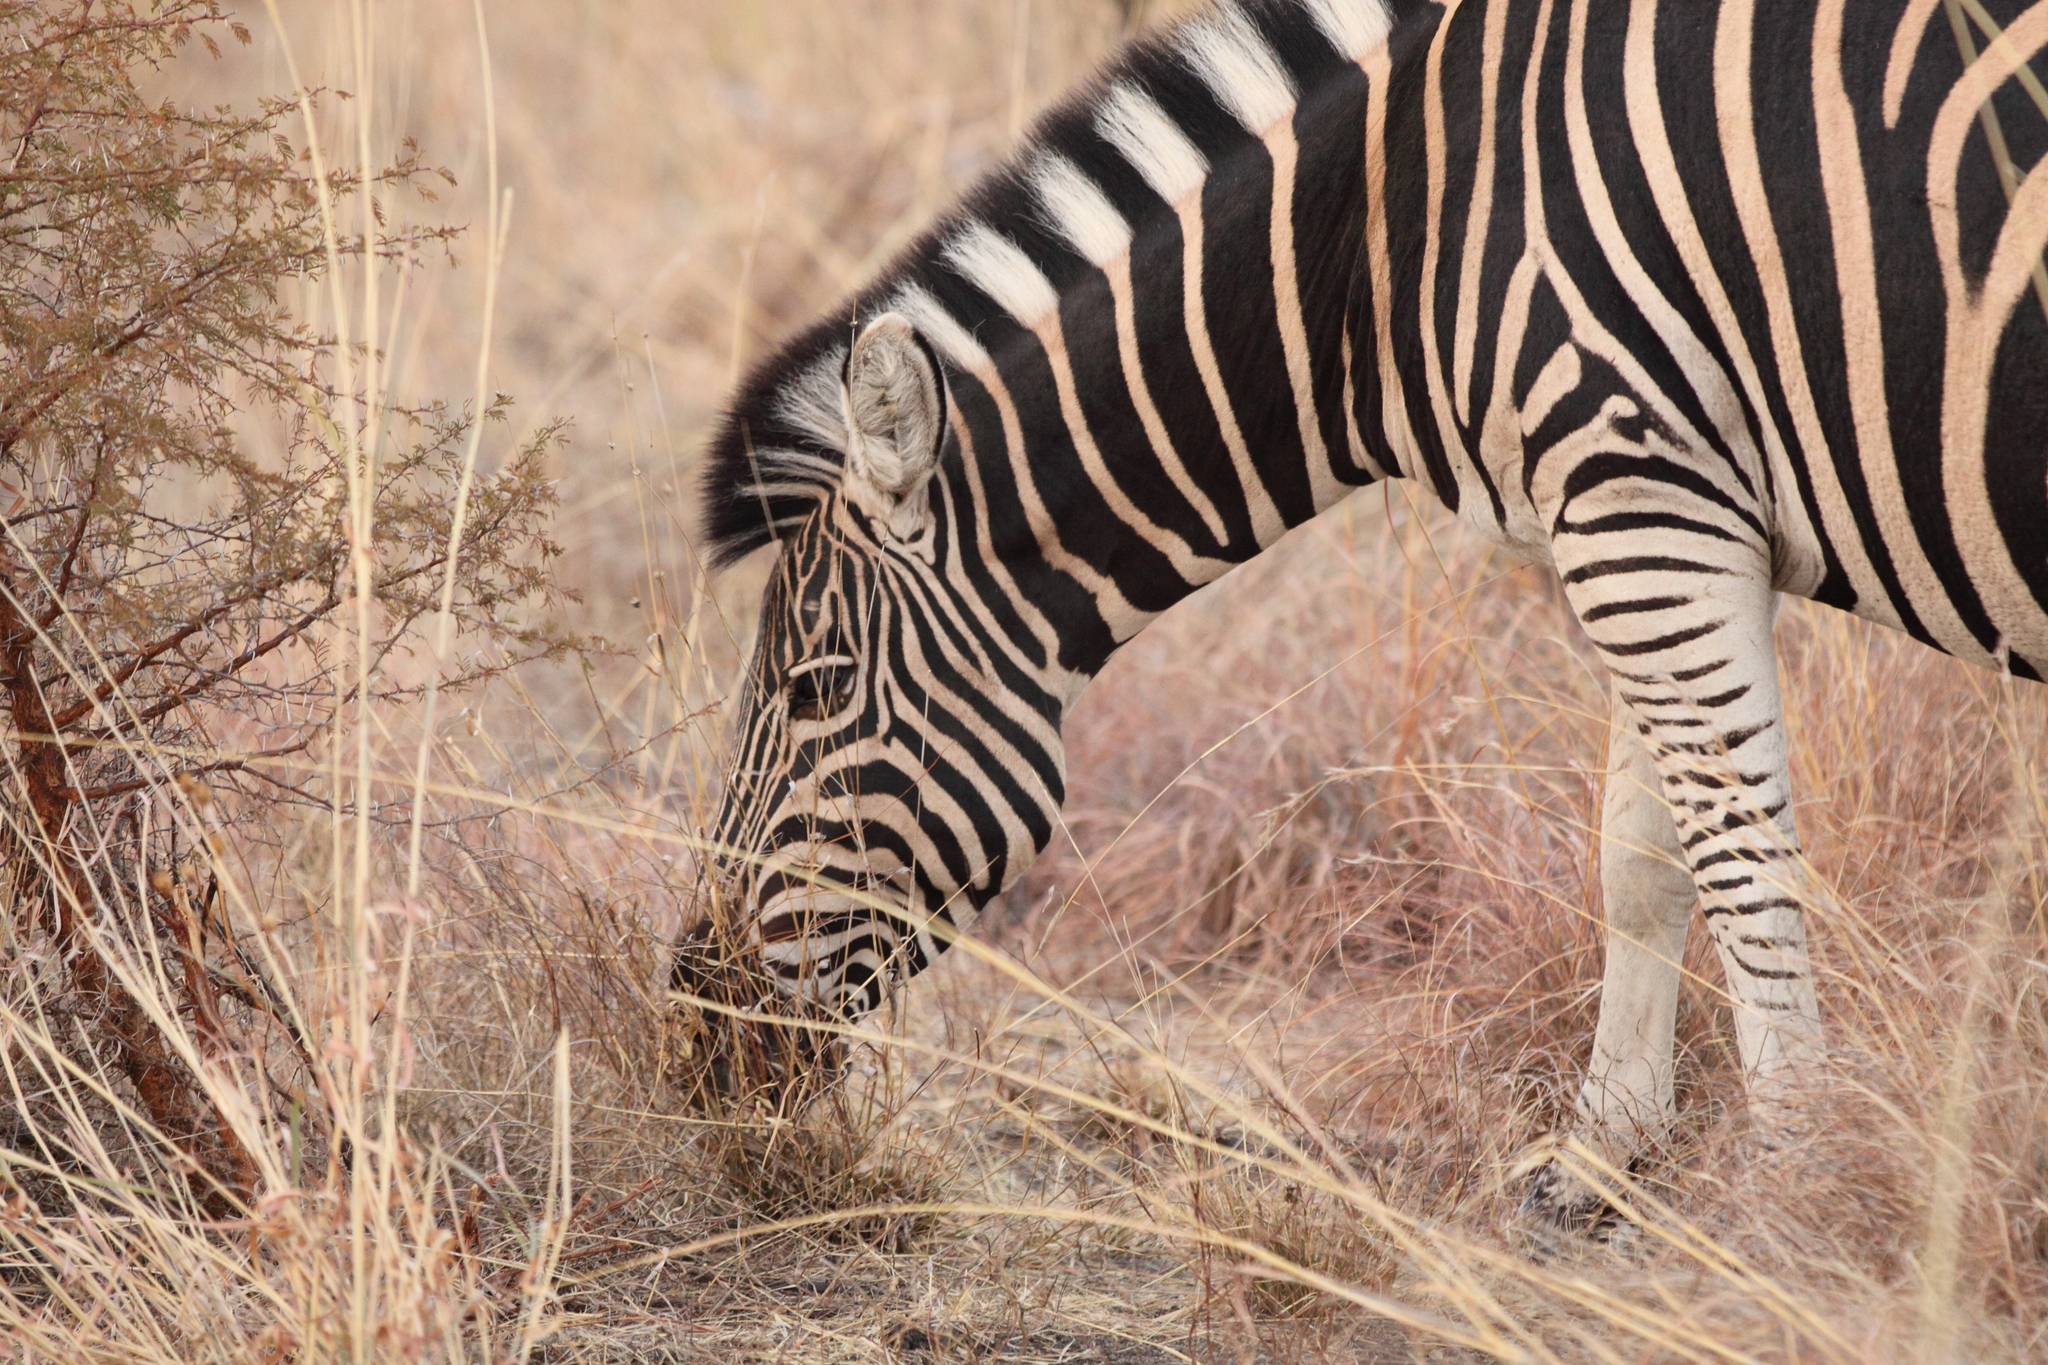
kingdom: Animalia
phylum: Chordata
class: Mammalia
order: Perissodactyla
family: Equidae
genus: Equus
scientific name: Equus quagga
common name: Plains zebra
